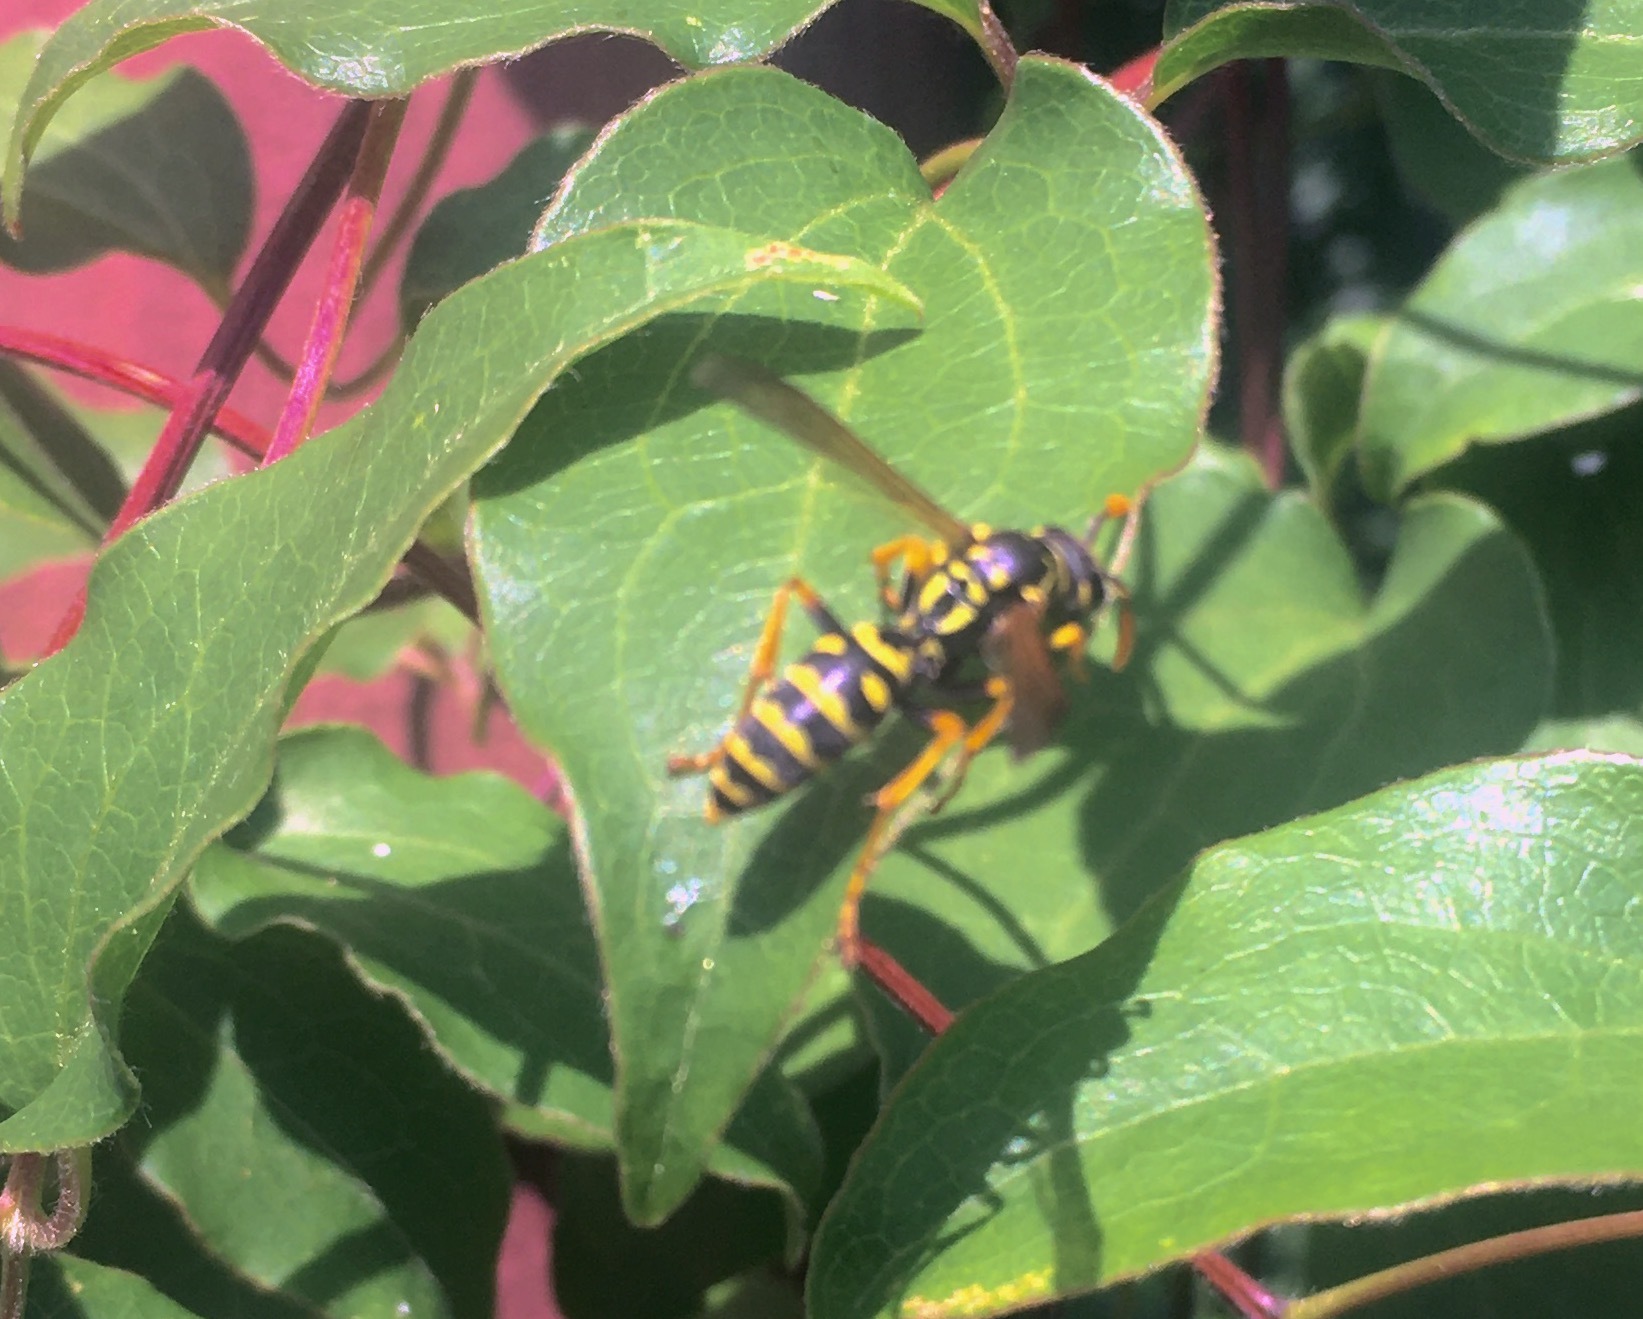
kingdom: Animalia
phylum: Arthropoda
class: Insecta
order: Hymenoptera
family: Eumenidae
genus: Polistes
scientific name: Polistes dominula
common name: Paper wasp
